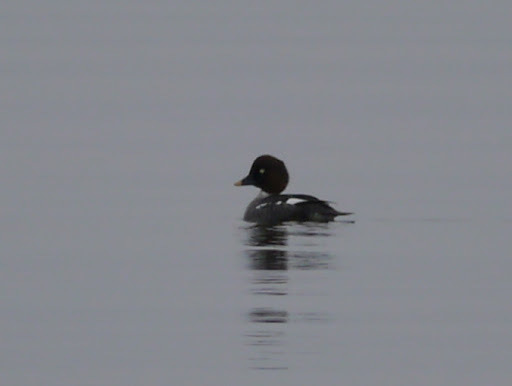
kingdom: Animalia
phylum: Chordata
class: Aves
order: Anseriformes
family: Anatidae
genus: Bucephala
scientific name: Bucephala clangula
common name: Common goldeneye
